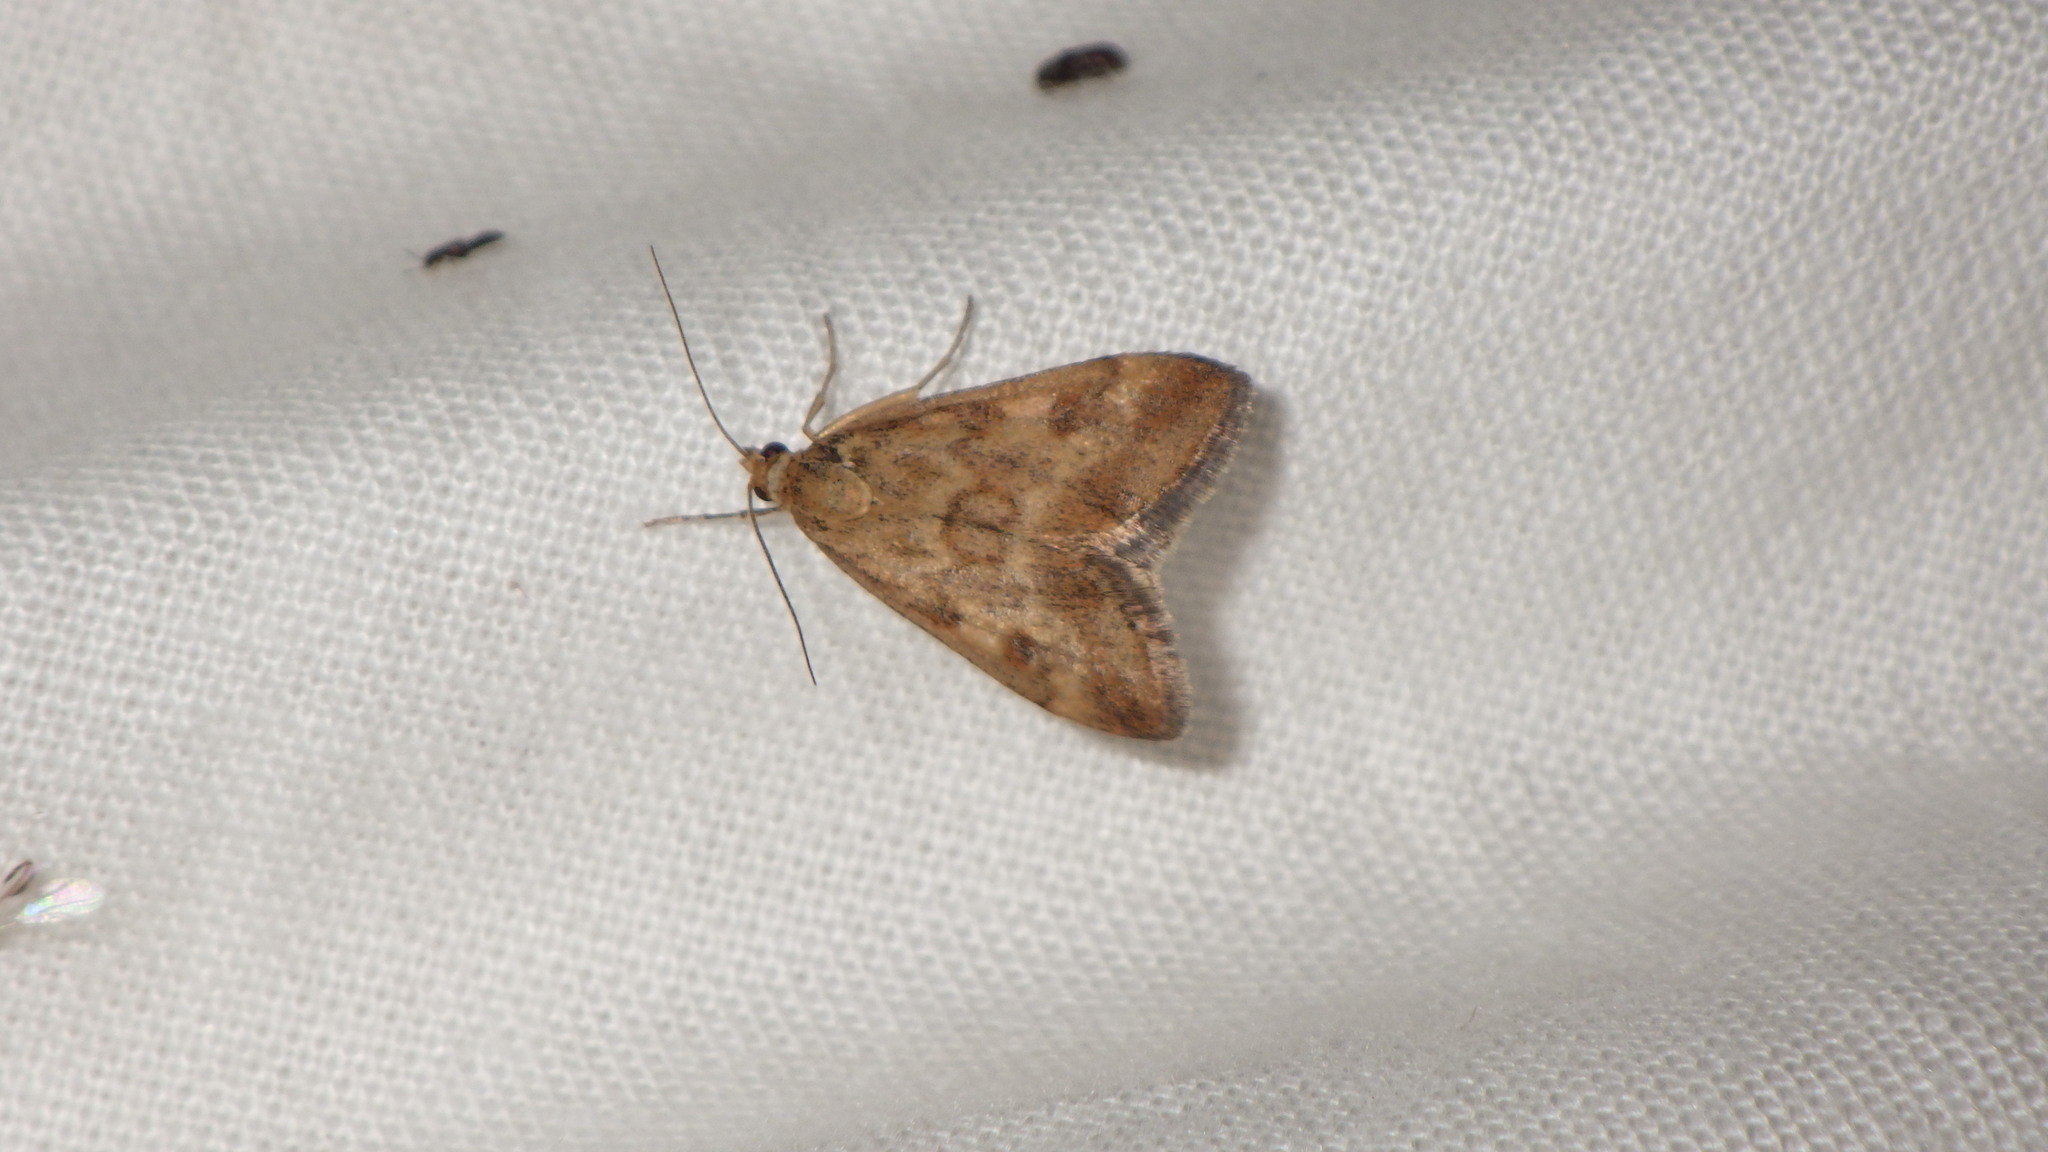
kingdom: Animalia
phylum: Arthropoda
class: Insecta
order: Lepidoptera
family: Crambidae
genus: Pyrausta
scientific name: Pyrausta despicata
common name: Straw-barred pearl
